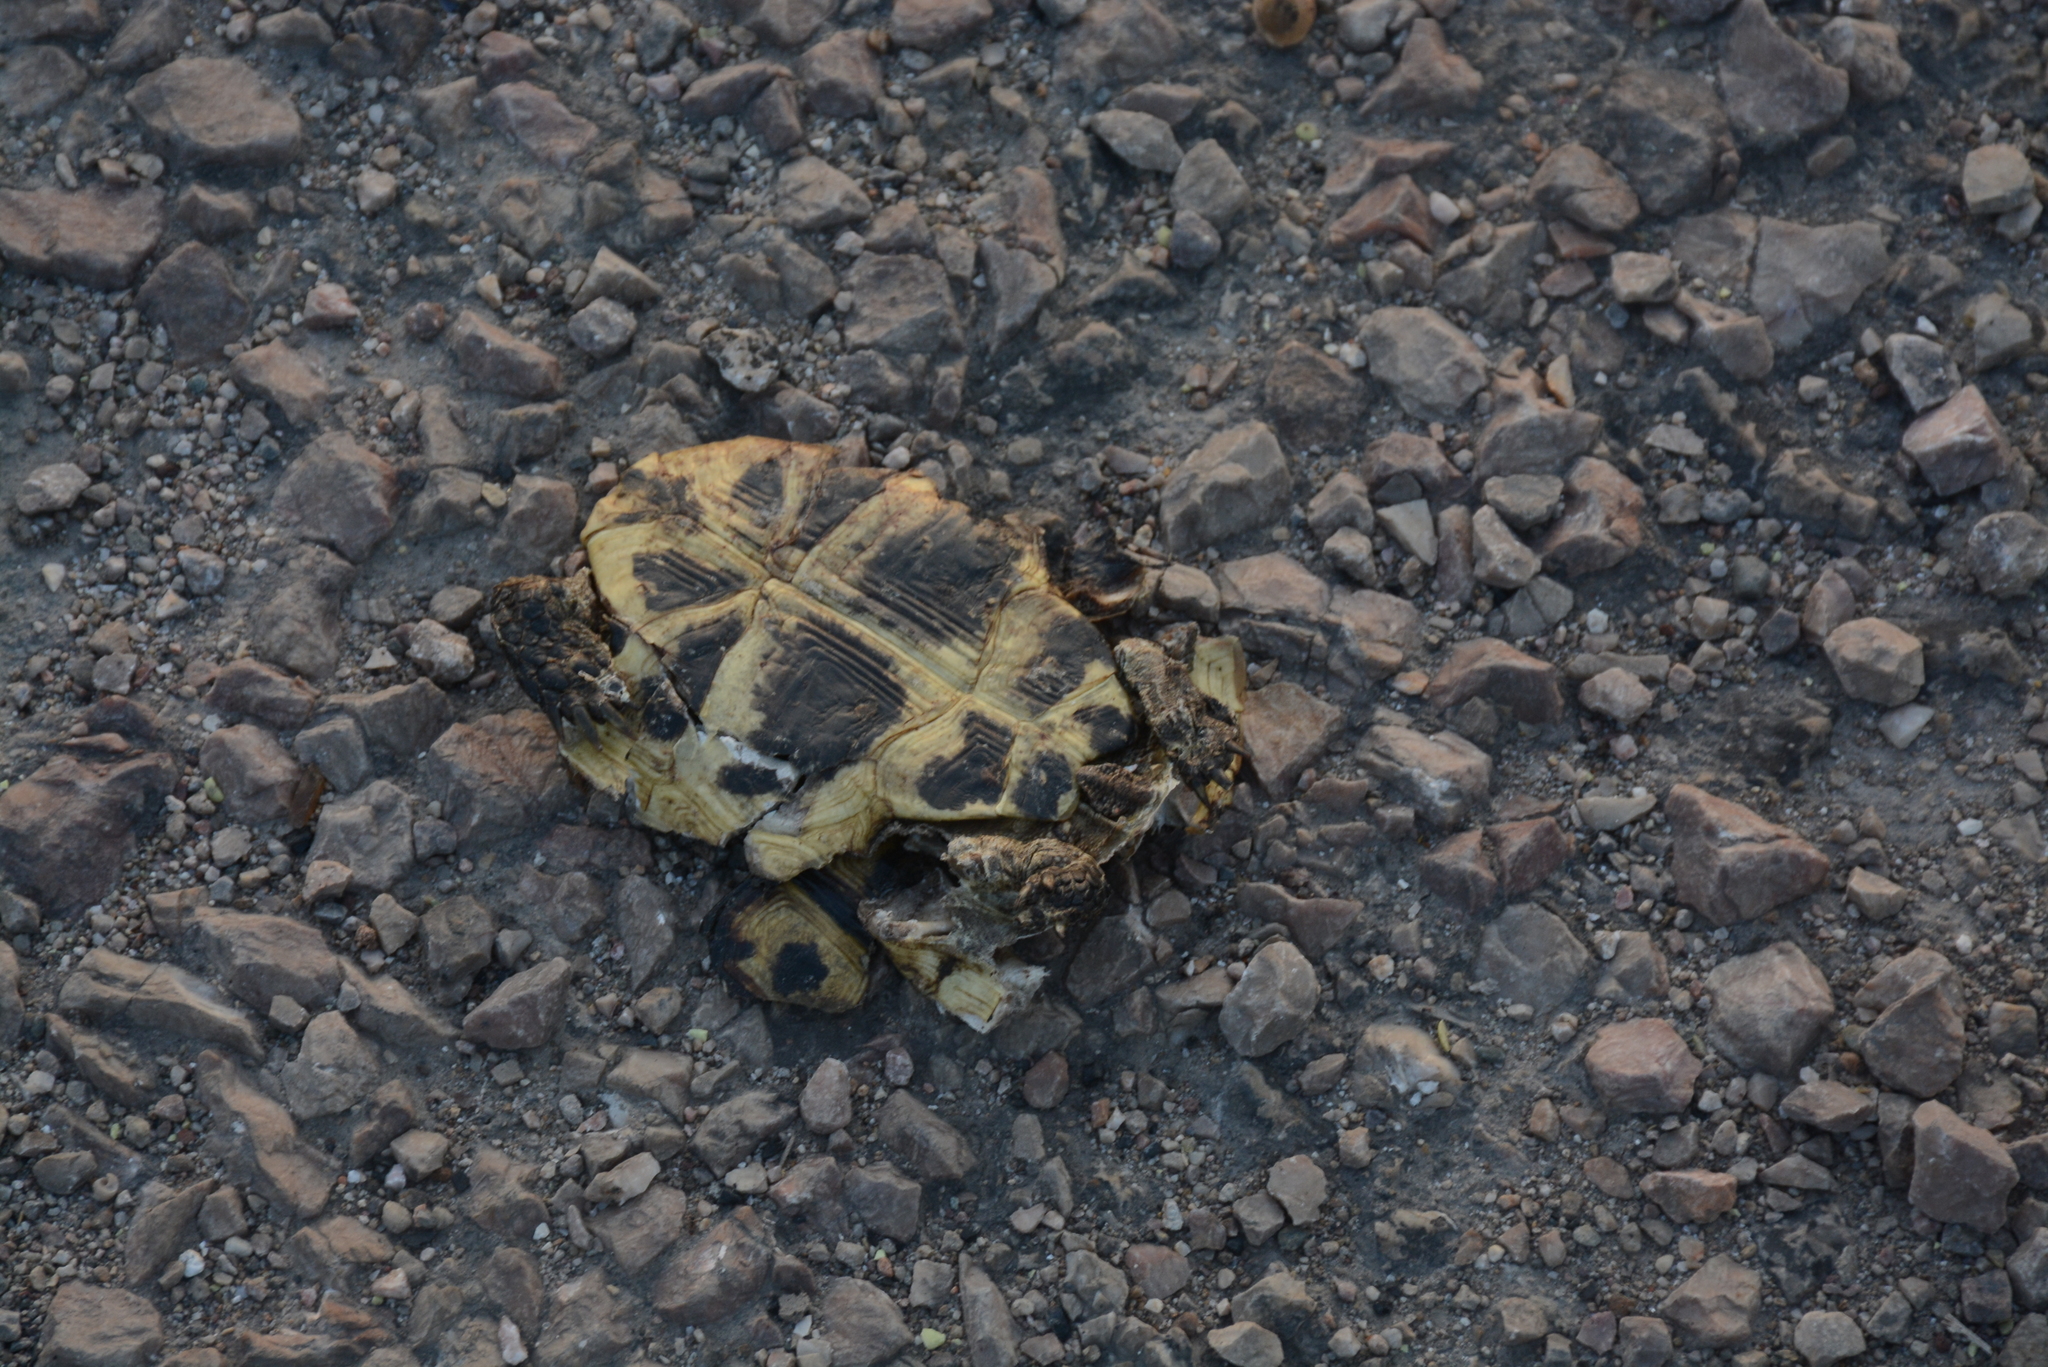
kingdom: Animalia
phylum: Chordata
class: Testudines
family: Testudinidae
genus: Testudo
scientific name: Testudo graeca
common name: Common tortoise
